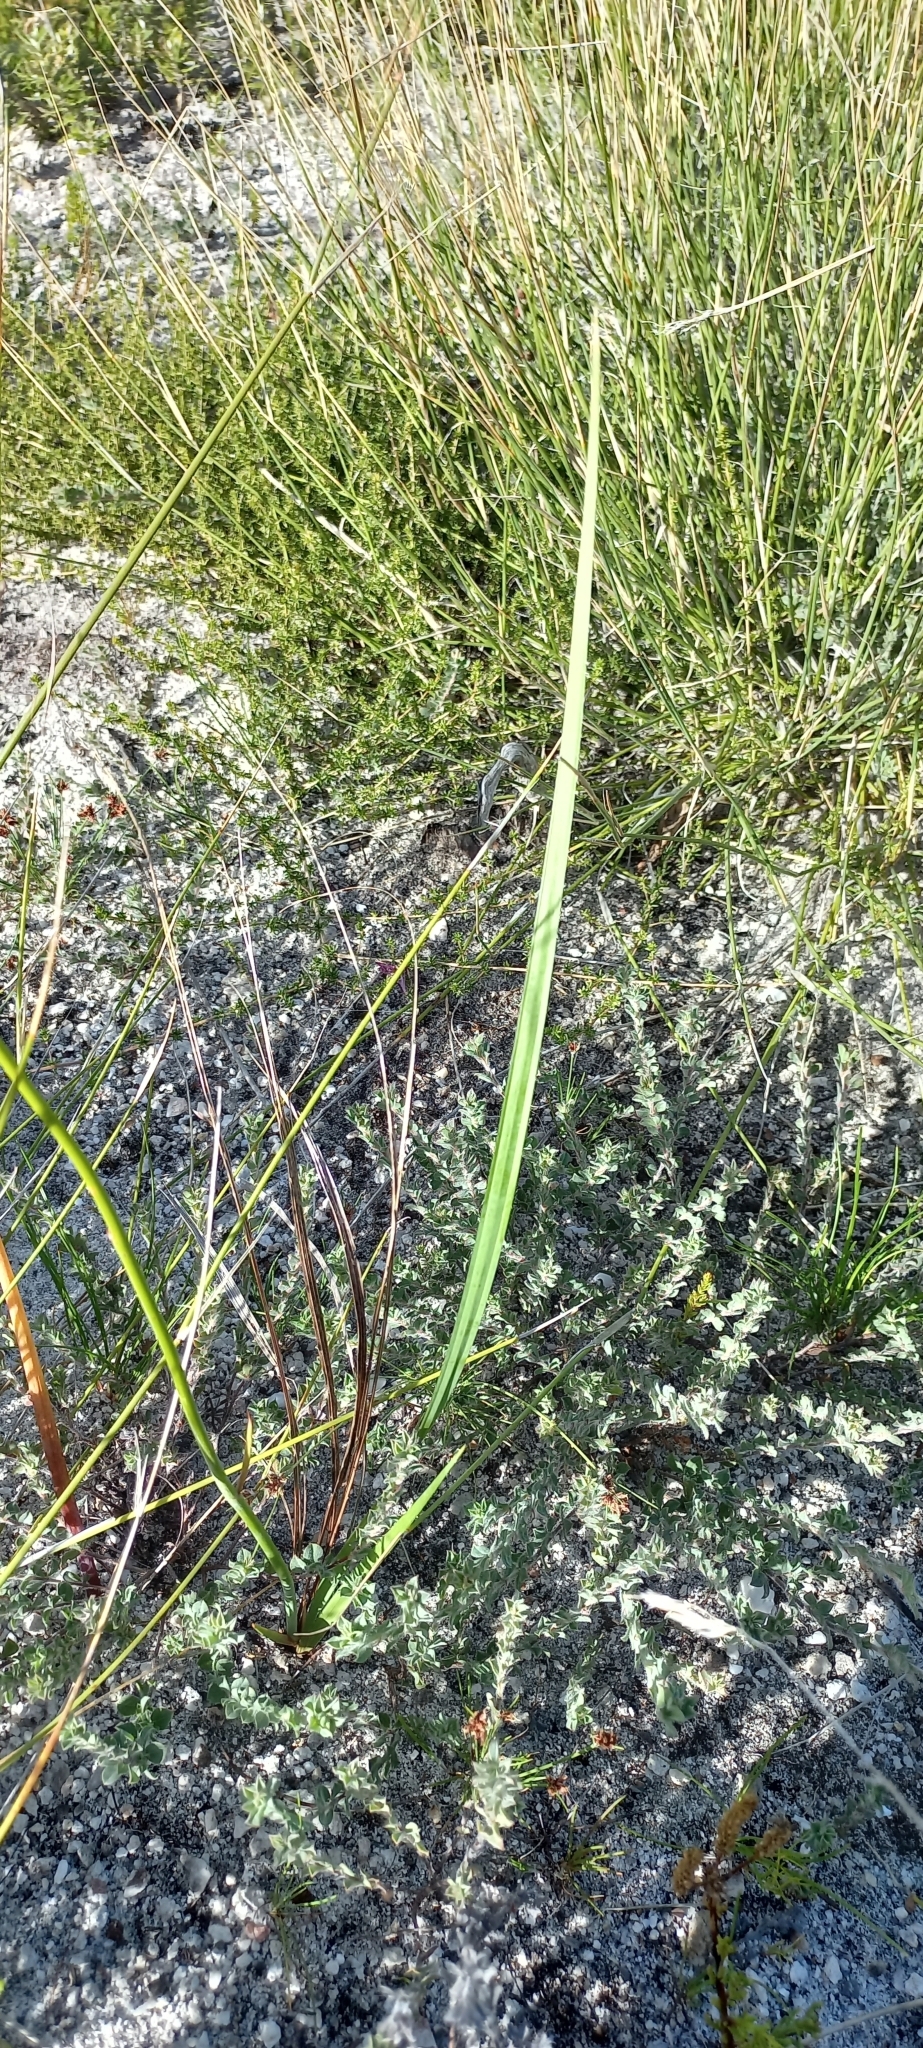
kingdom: Plantae
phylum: Tracheophyta
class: Liliopsida
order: Asparagales
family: Iridaceae
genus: Tritoniopsis
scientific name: Tritoniopsis lata
